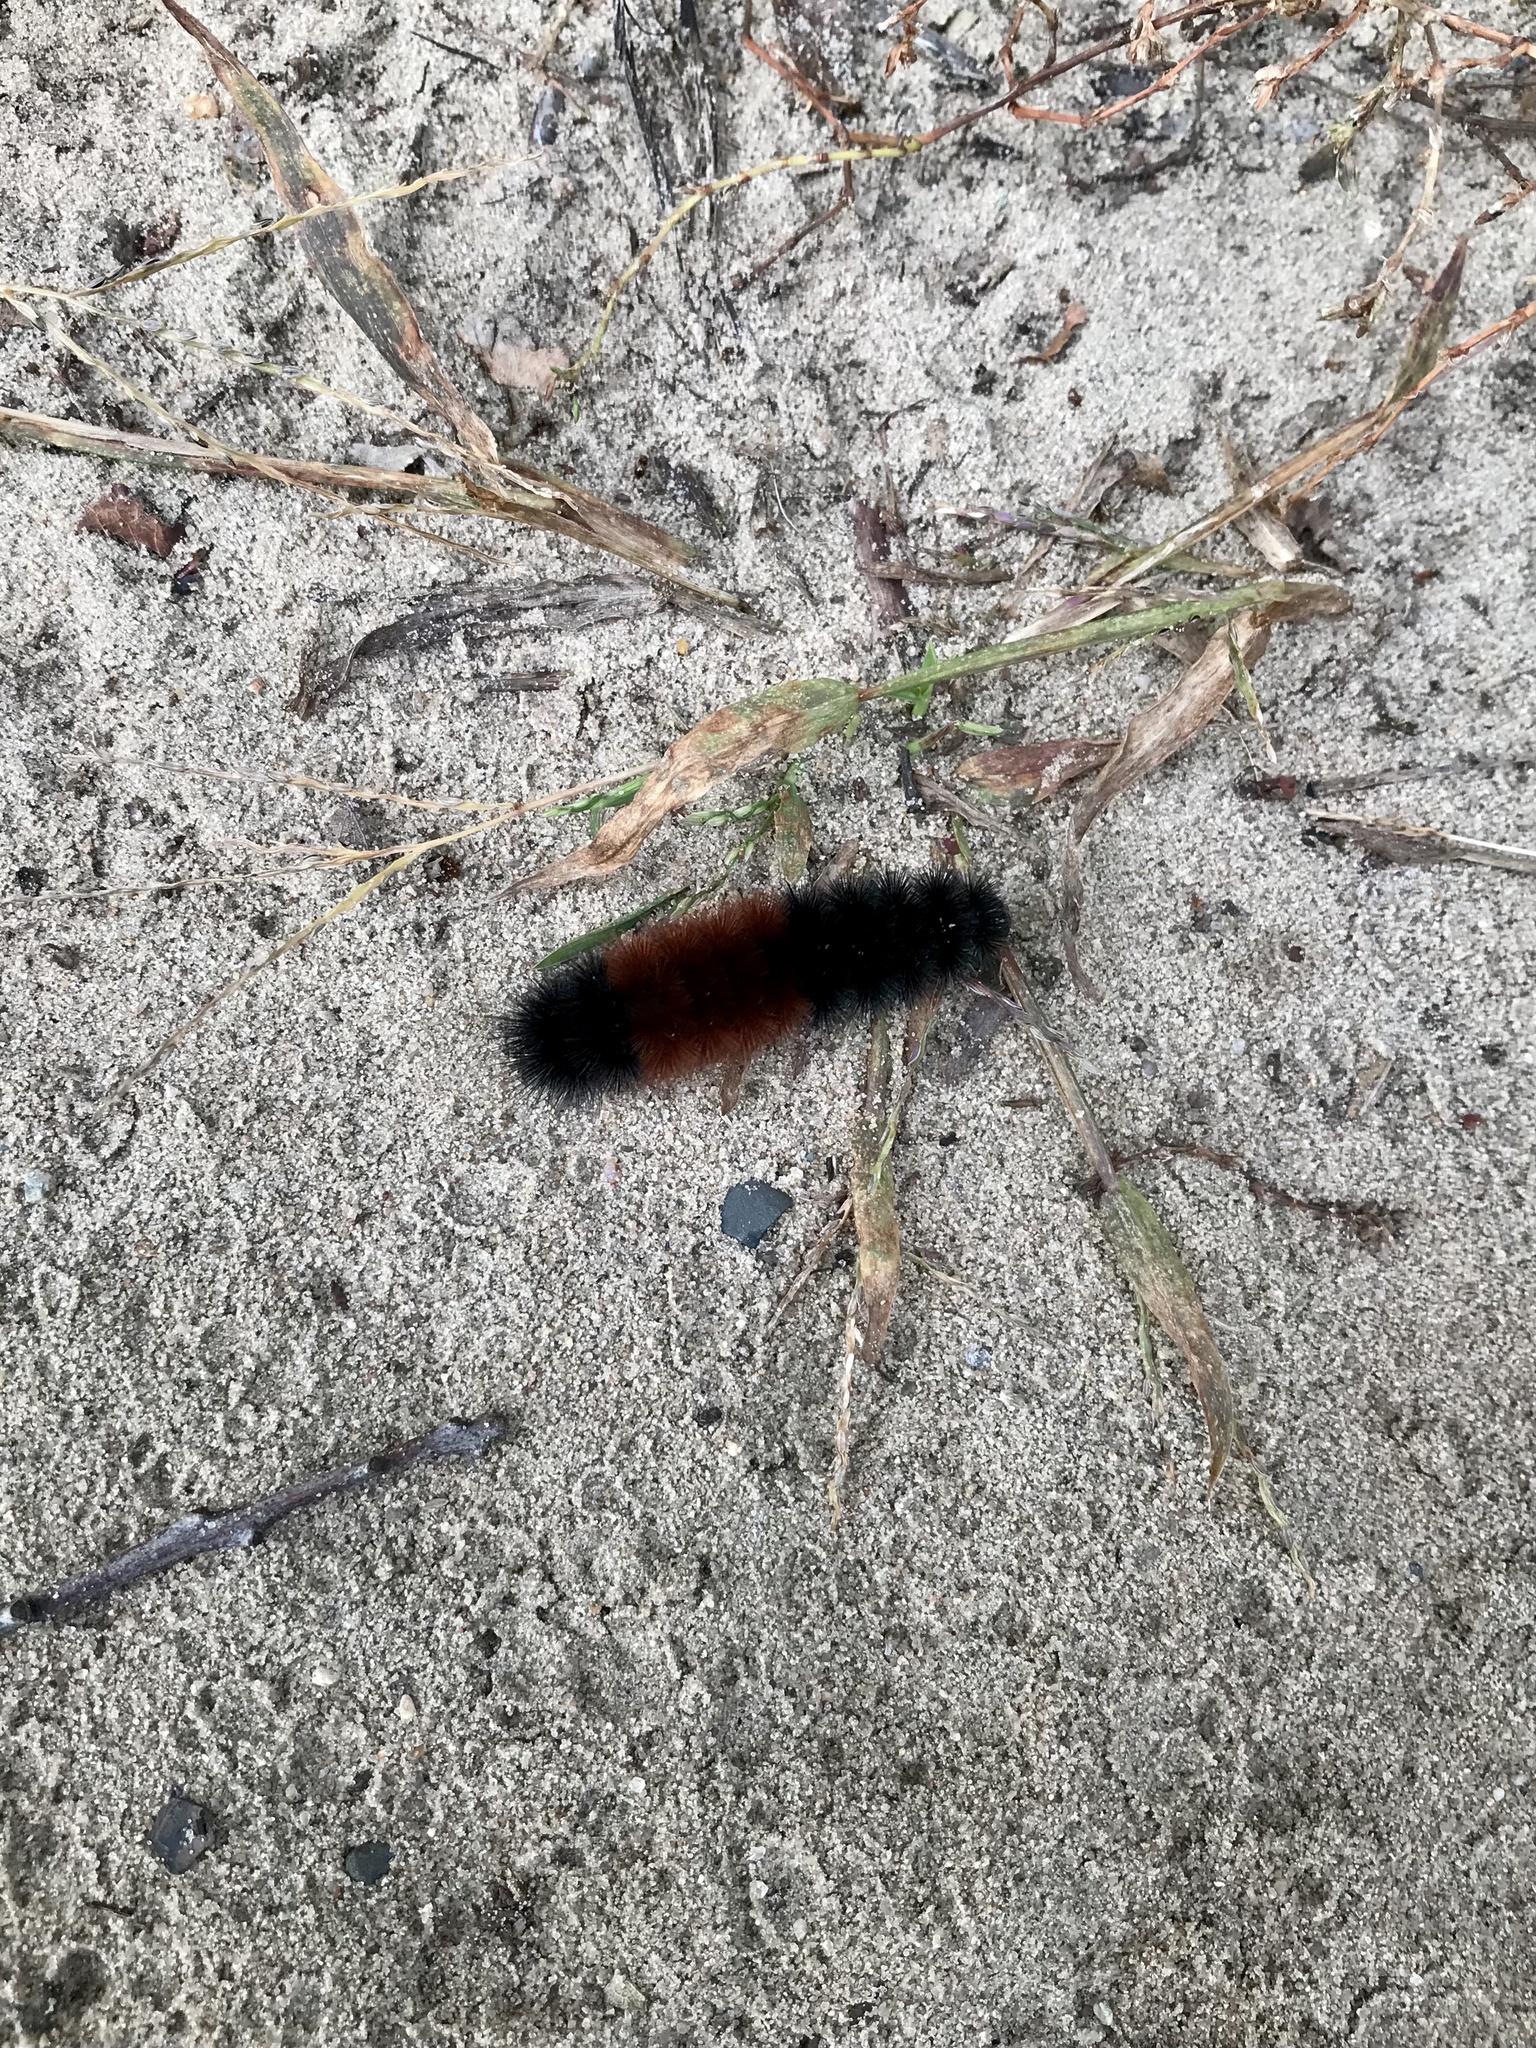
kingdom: Animalia
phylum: Arthropoda
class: Insecta
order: Lepidoptera
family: Erebidae
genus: Pyrrharctia
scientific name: Pyrrharctia isabella
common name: Isabella tiger moth
